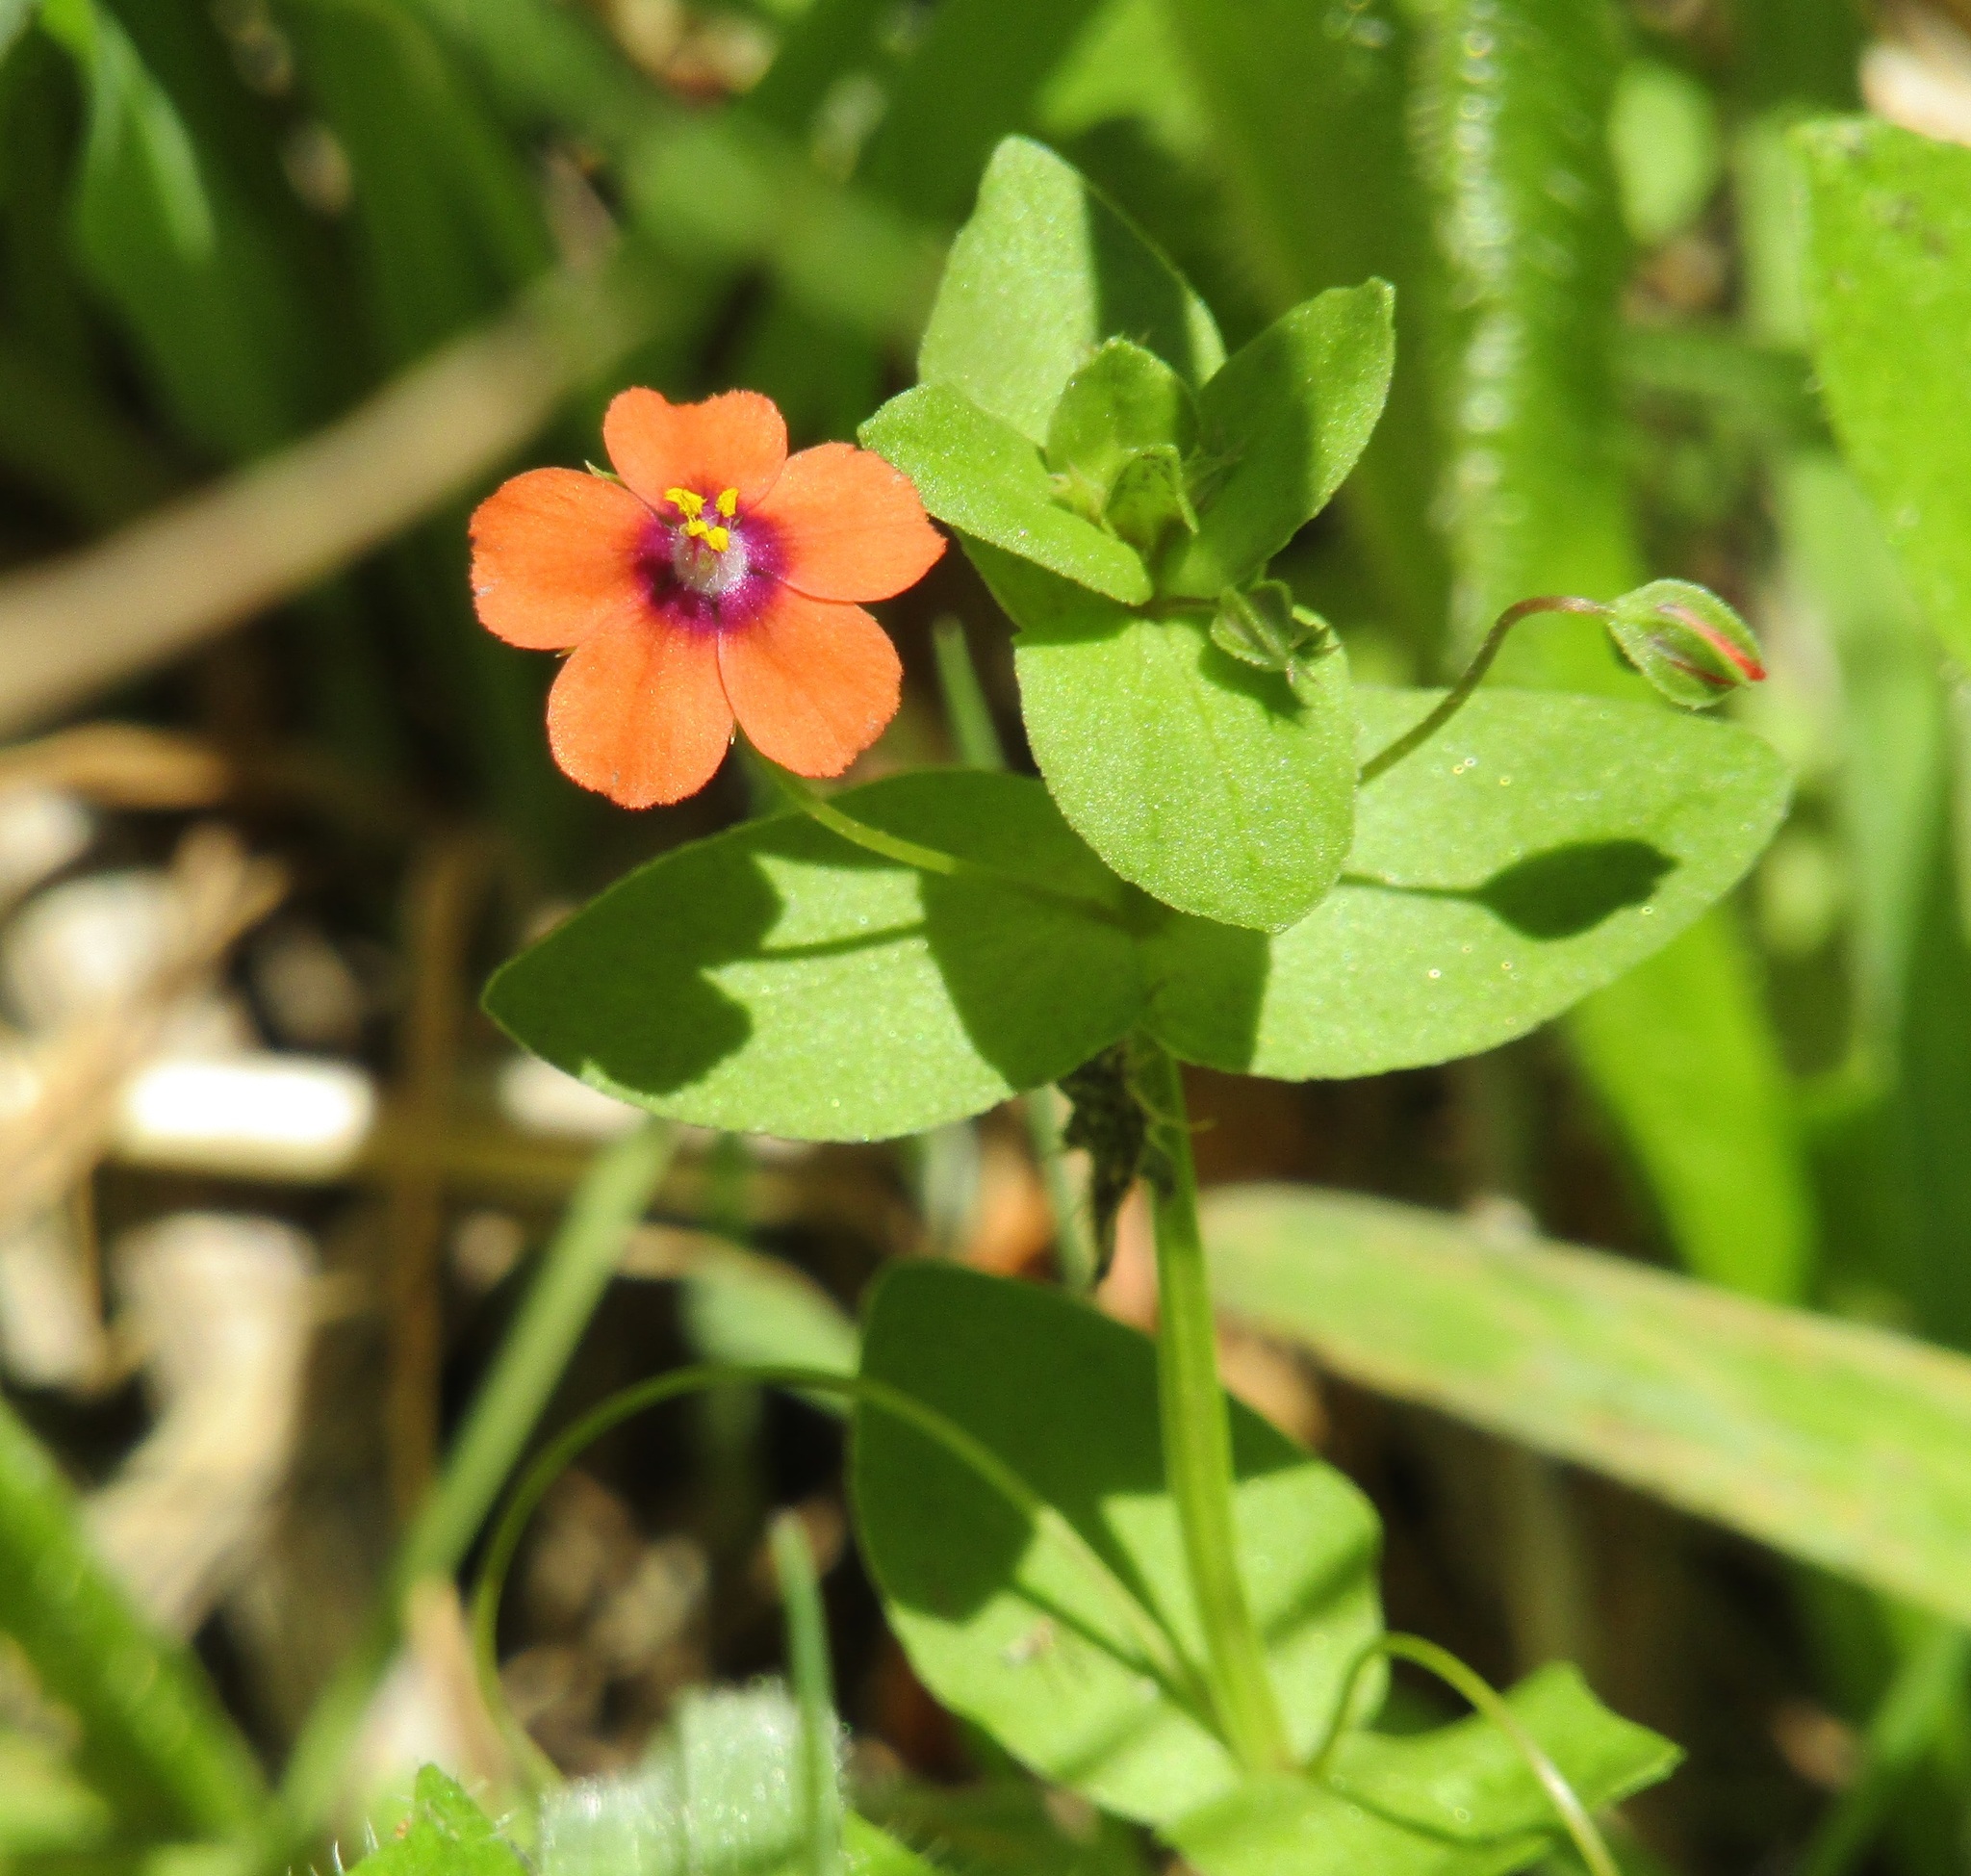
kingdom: Plantae
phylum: Tracheophyta
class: Magnoliopsida
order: Ericales
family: Primulaceae
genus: Lysimachia
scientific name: Lysimachia arvensis
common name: Scarlet pimpernel
